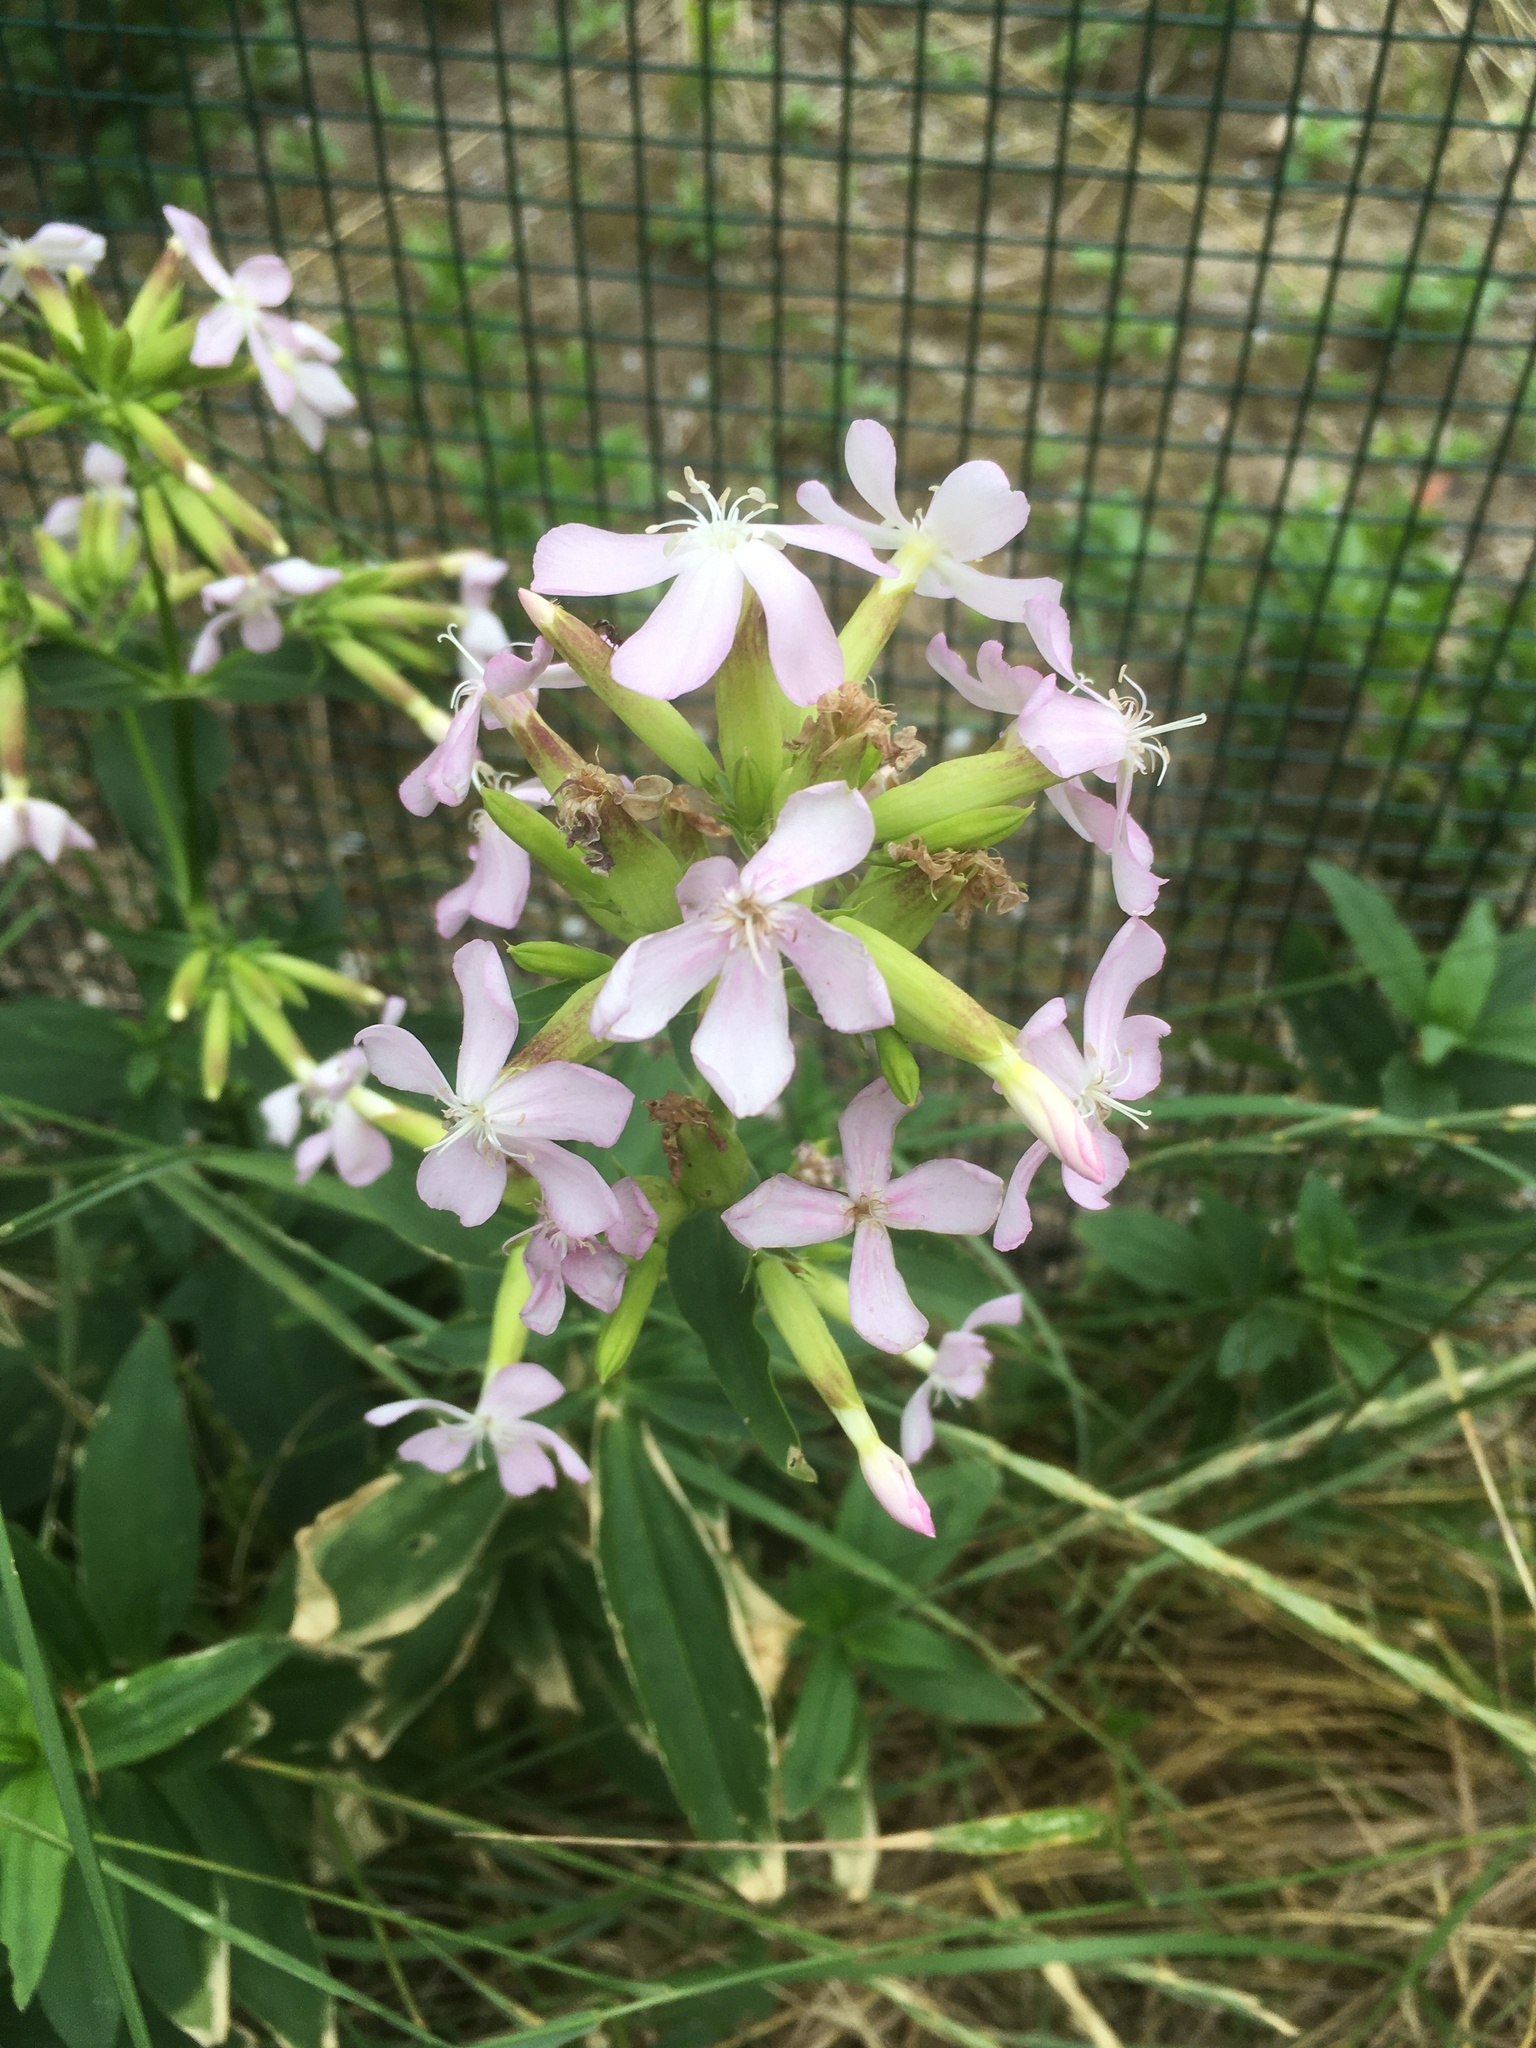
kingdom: Plantae
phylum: Tracheophyta
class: Magnoliopsida
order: Caryophyllales
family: Caryophyllaceae
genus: Saponaria
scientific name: Saponaria officinalis
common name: Soapwort
